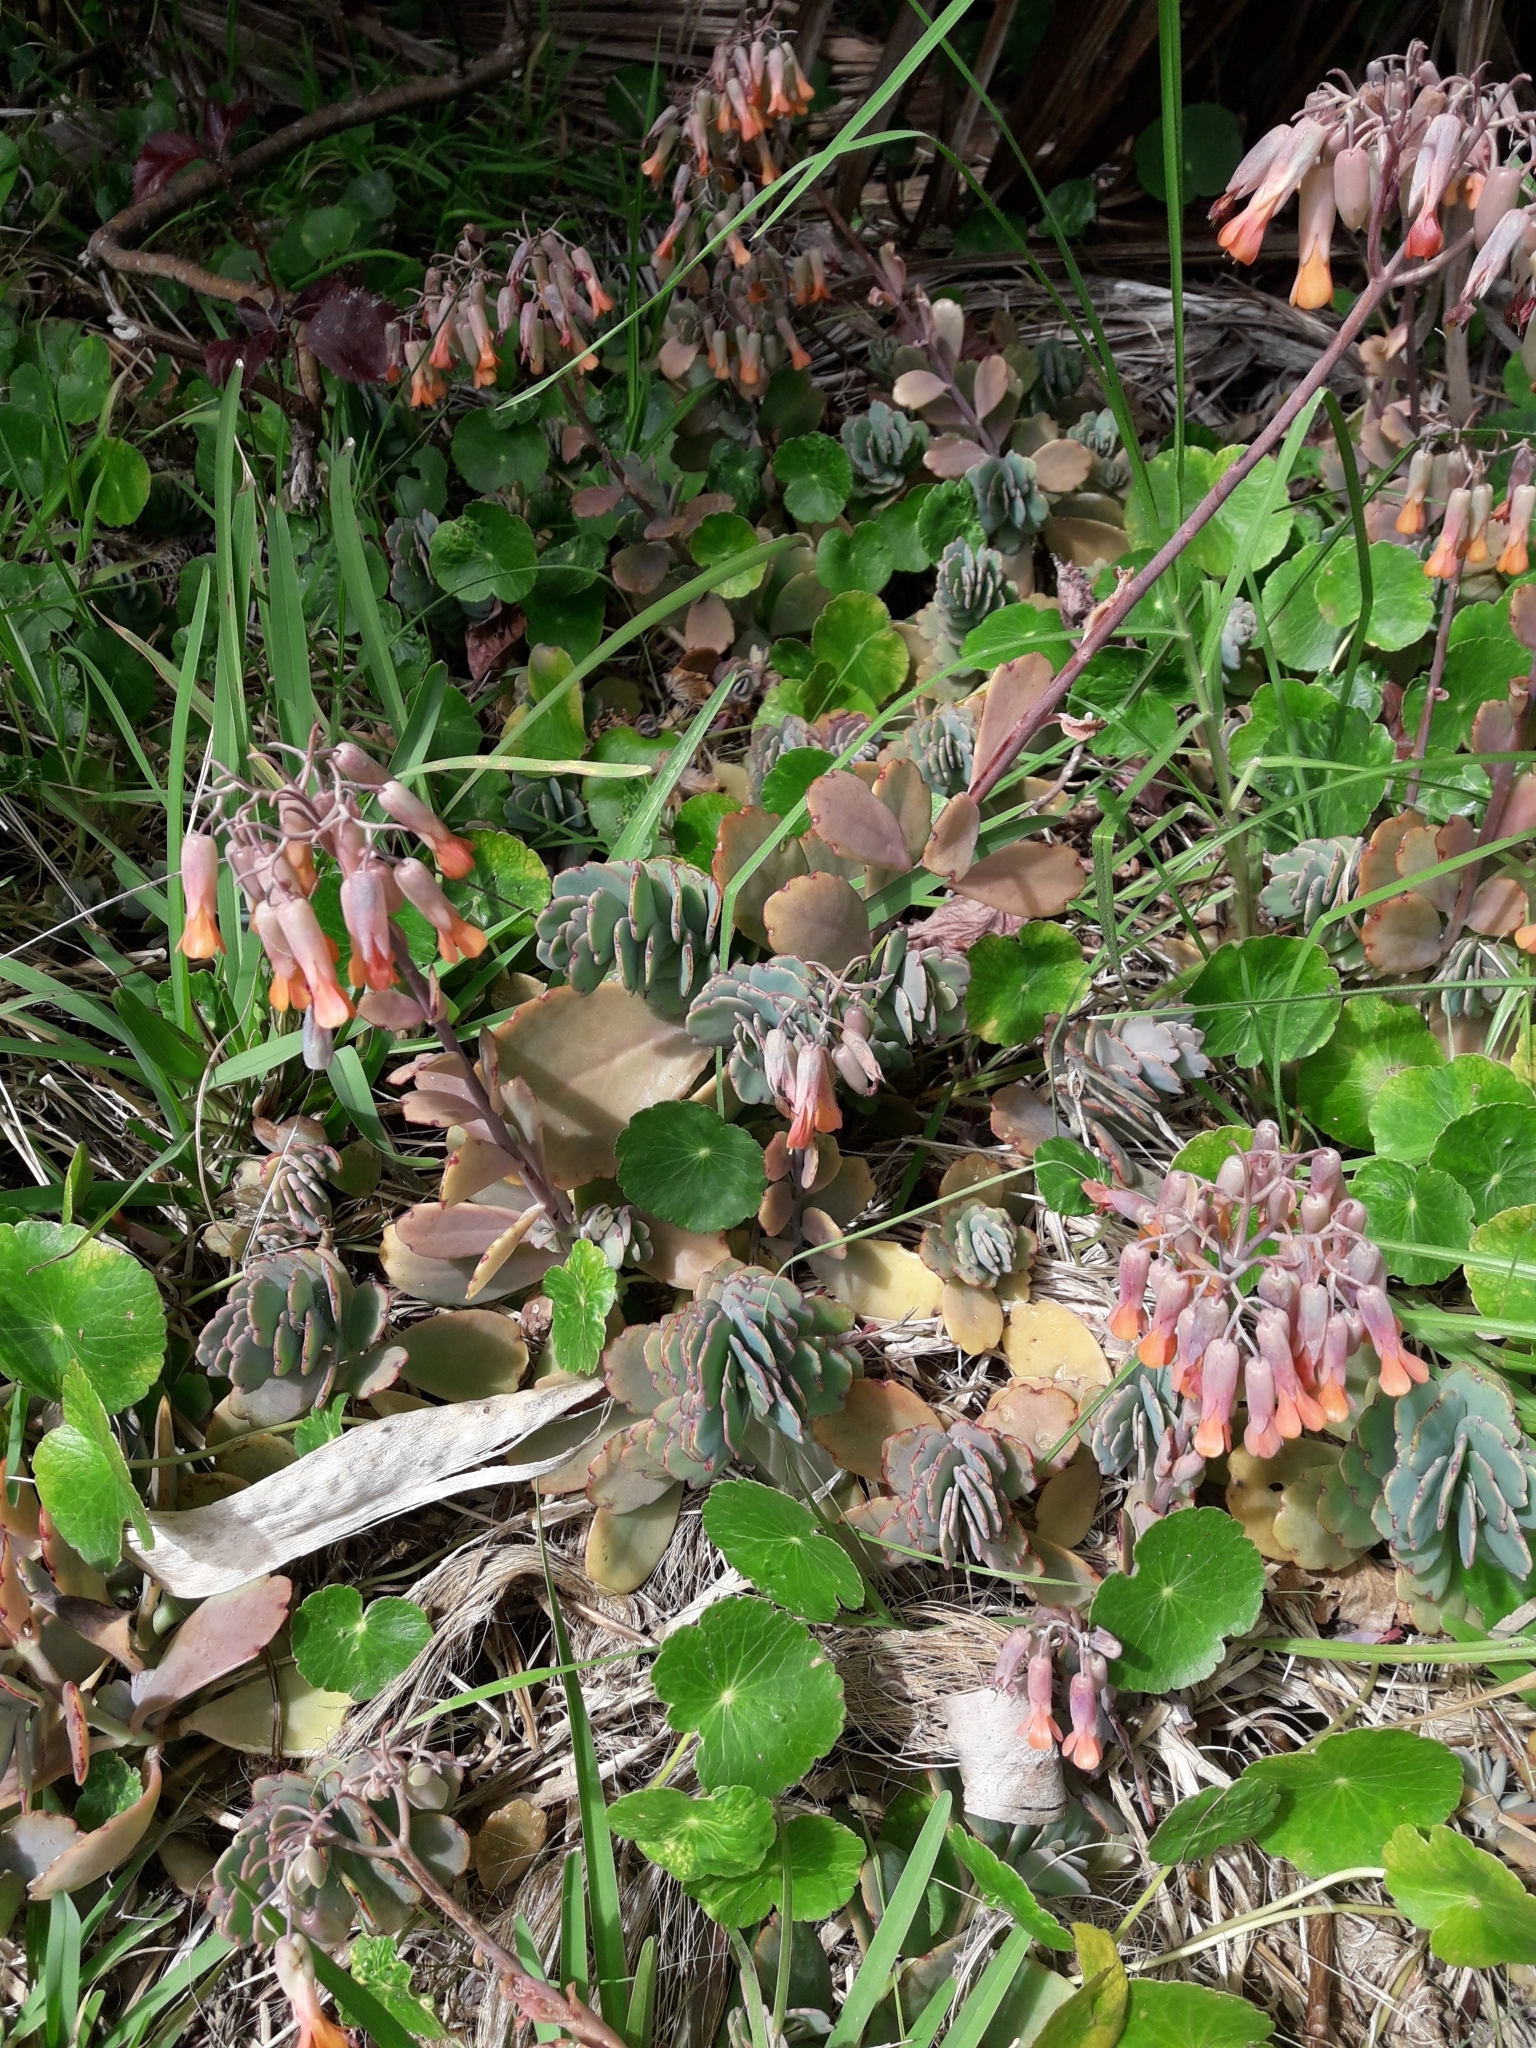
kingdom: Plantae
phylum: Tracheophyta
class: Magnoliopsida
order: Saxifragales
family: Crassulaceae
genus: Kalanchoe
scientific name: Kalanchoe fedtschenkoi
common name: Lavender scallops
